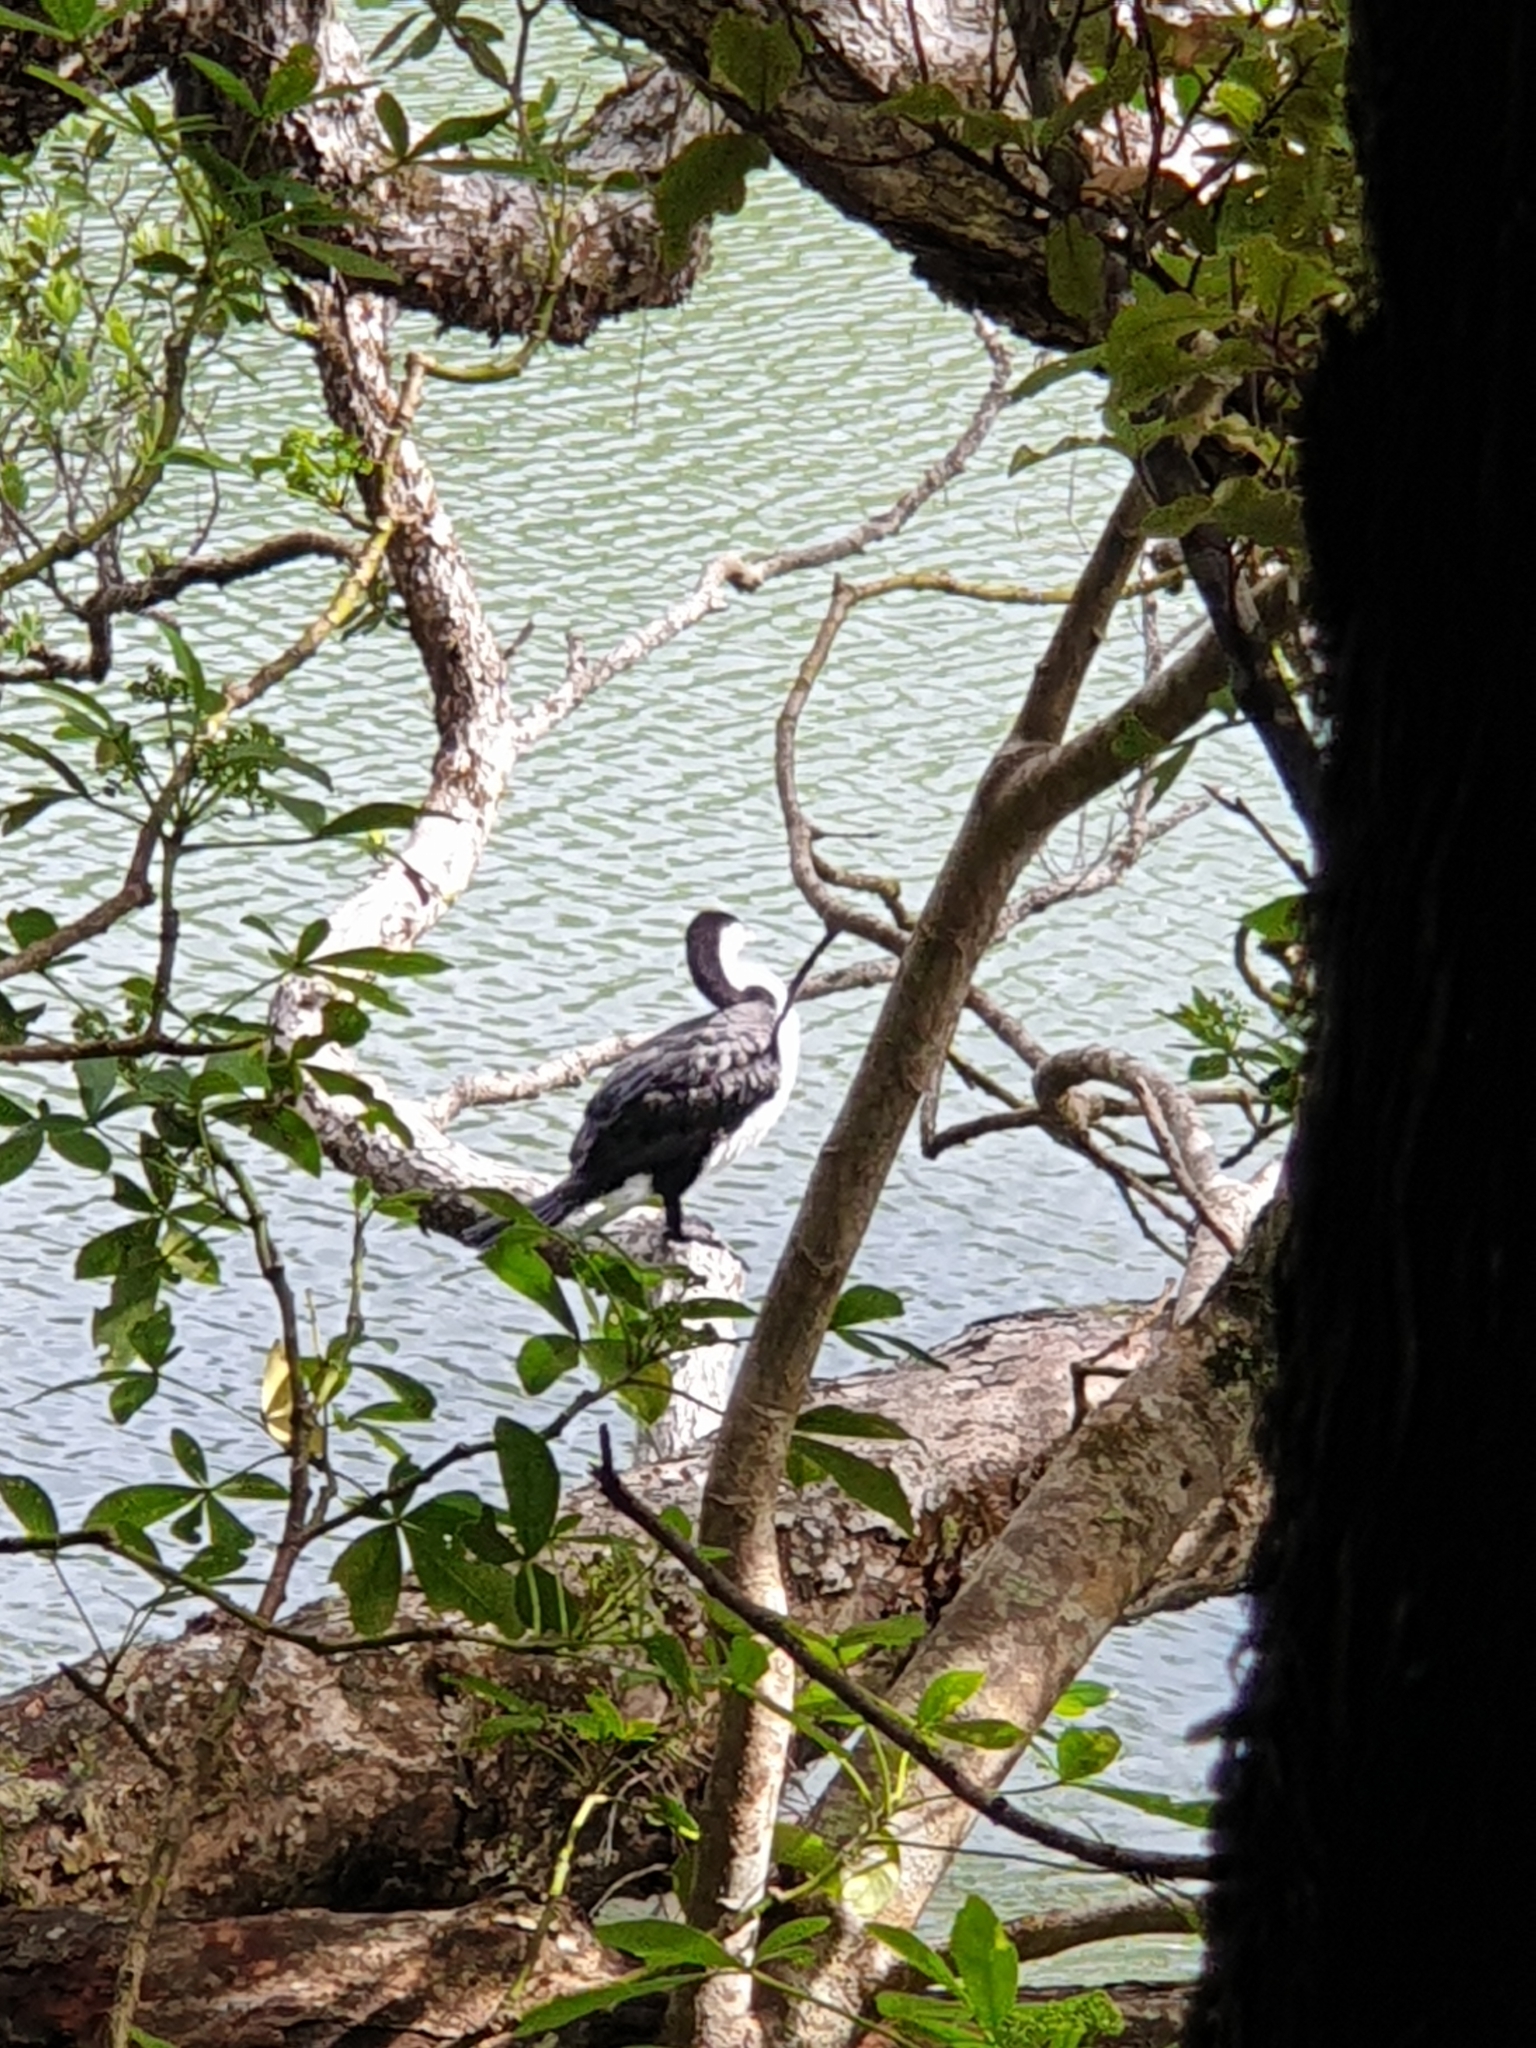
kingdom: Animalia
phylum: Chordata
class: Aves
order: Suliformes
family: Phalacrocoracidae
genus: Phalacrocorax
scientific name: Phalacrocorax varius
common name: Pied cormorant
